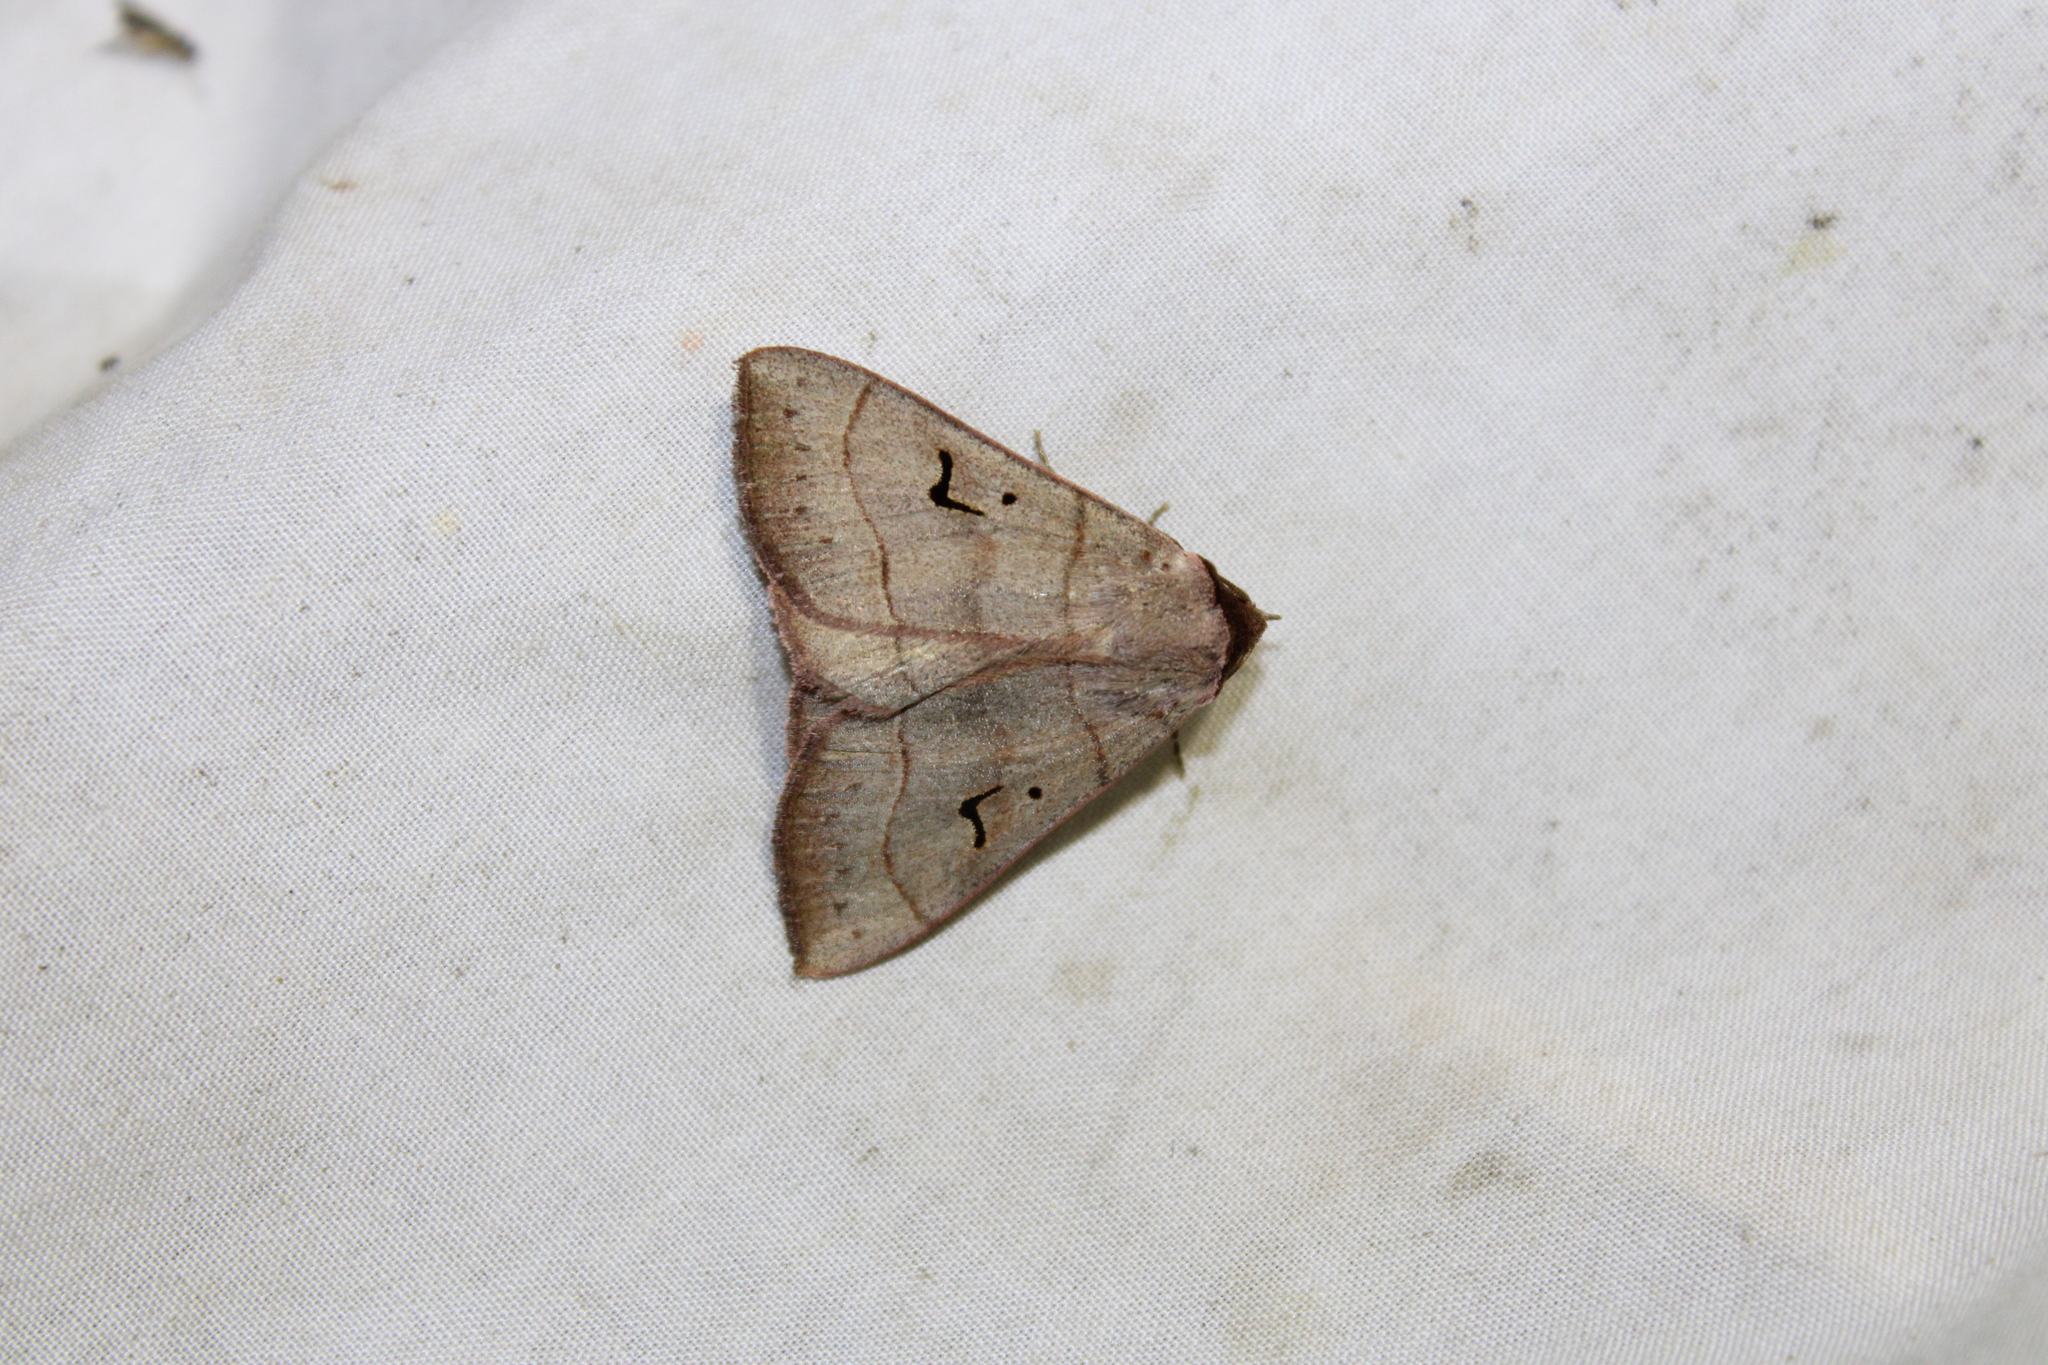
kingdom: Animalia
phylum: Arthropoda
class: Insecta
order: Lepidoptera
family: Erebidae
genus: Panopoda
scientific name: Panopoda carneicosta
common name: Brown panopoda moth
